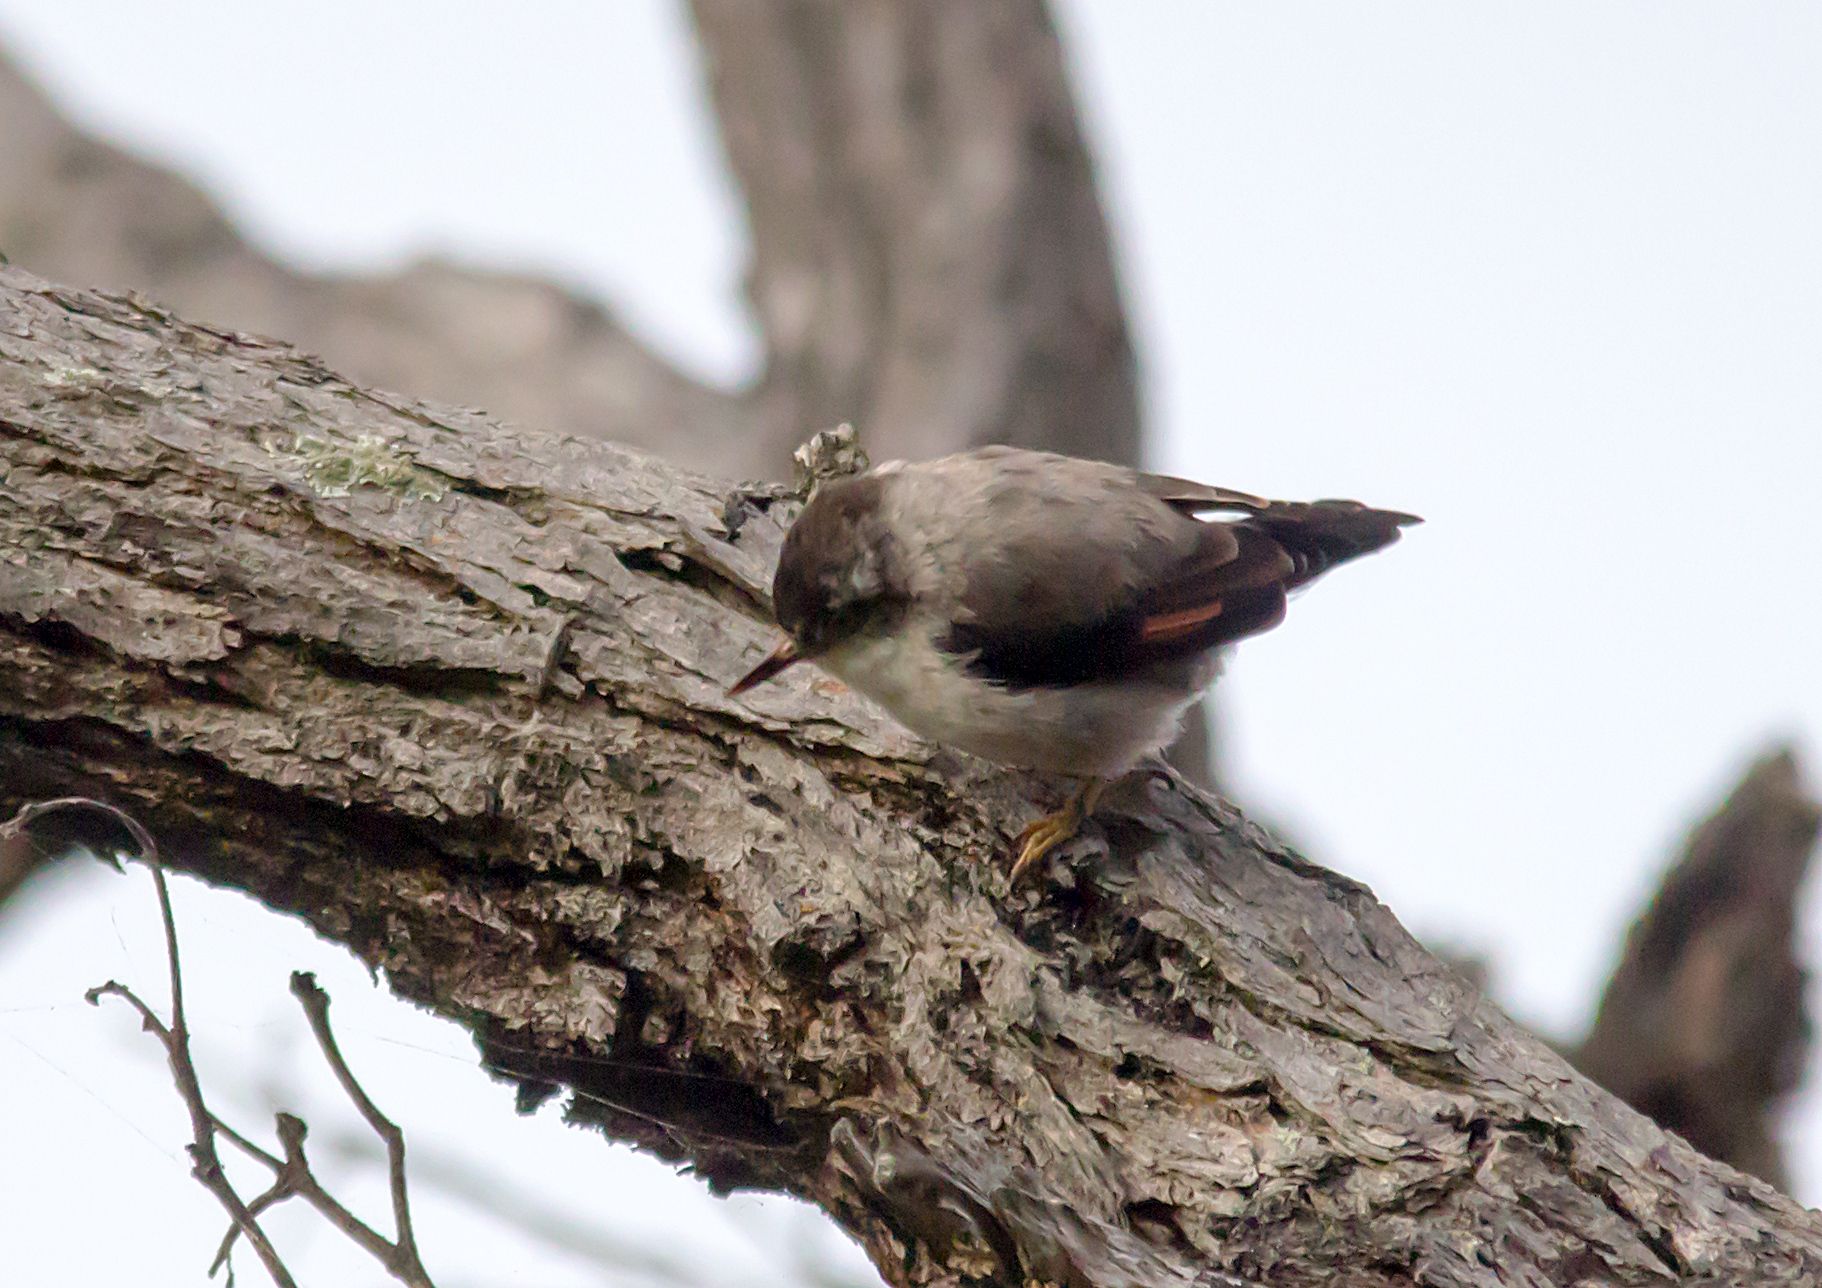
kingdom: Animalia
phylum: Chordata
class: Aves
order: Passeriformes
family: Neosittidae
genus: Daphoenositta
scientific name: Daphoenositta chrysoptera
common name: Varied sittella
